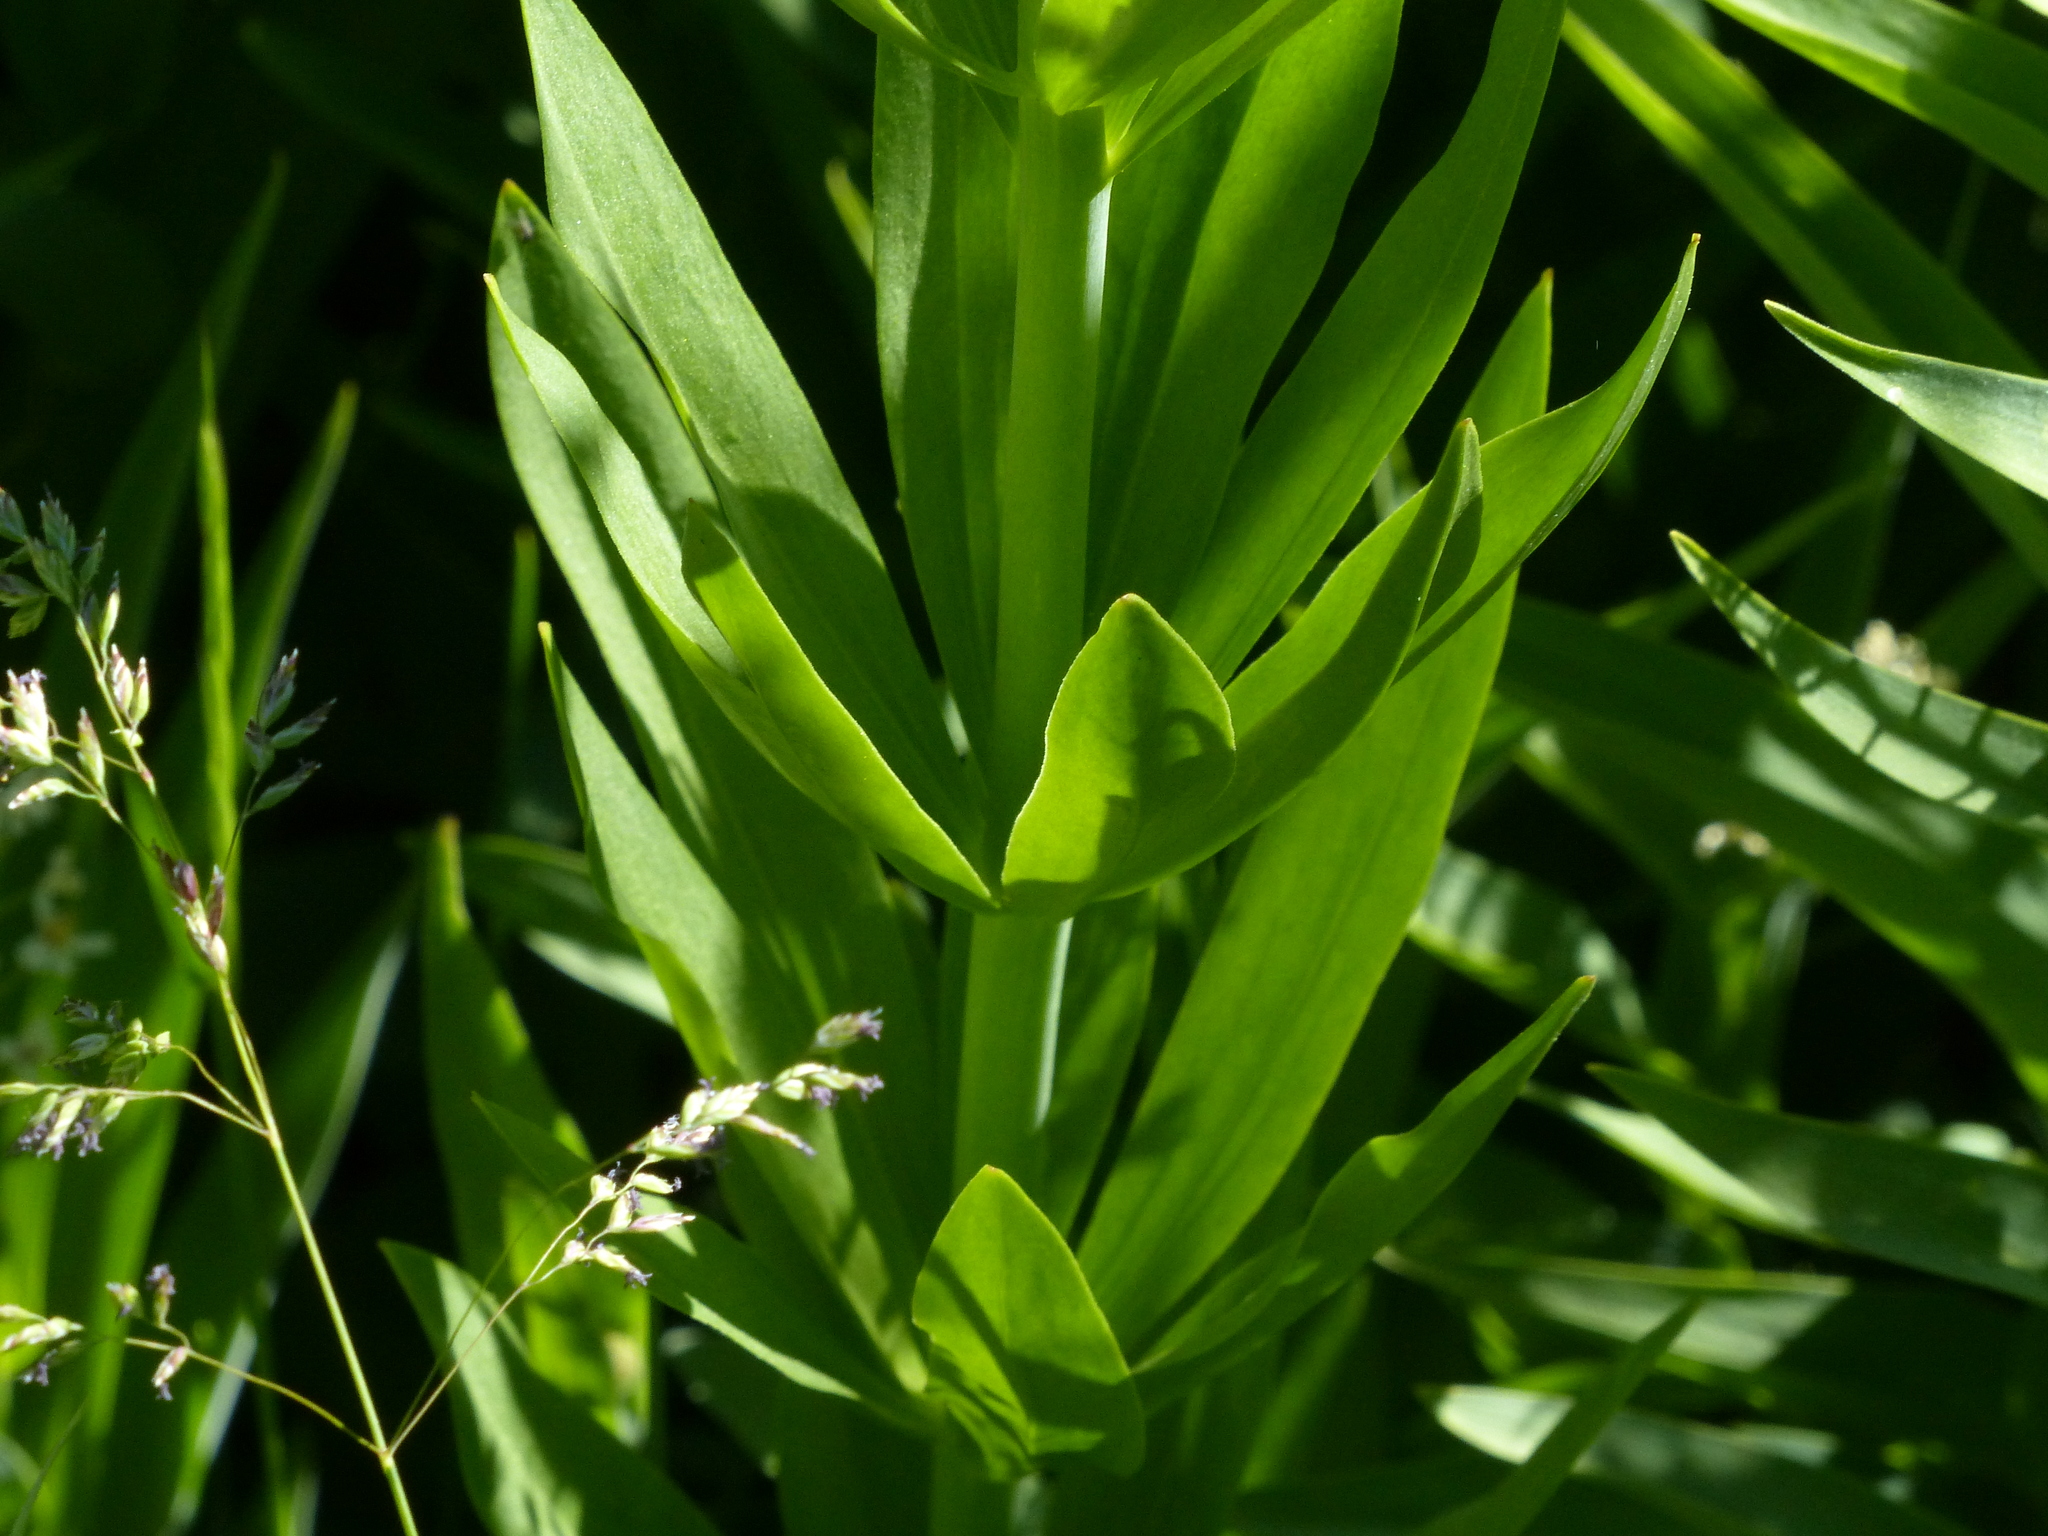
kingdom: Plantae
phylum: Tracheophyta
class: Liliopsida
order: Liliales
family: Liliaceae
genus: Lilium
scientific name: Lilium kelleyanum
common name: Kelley's lily
